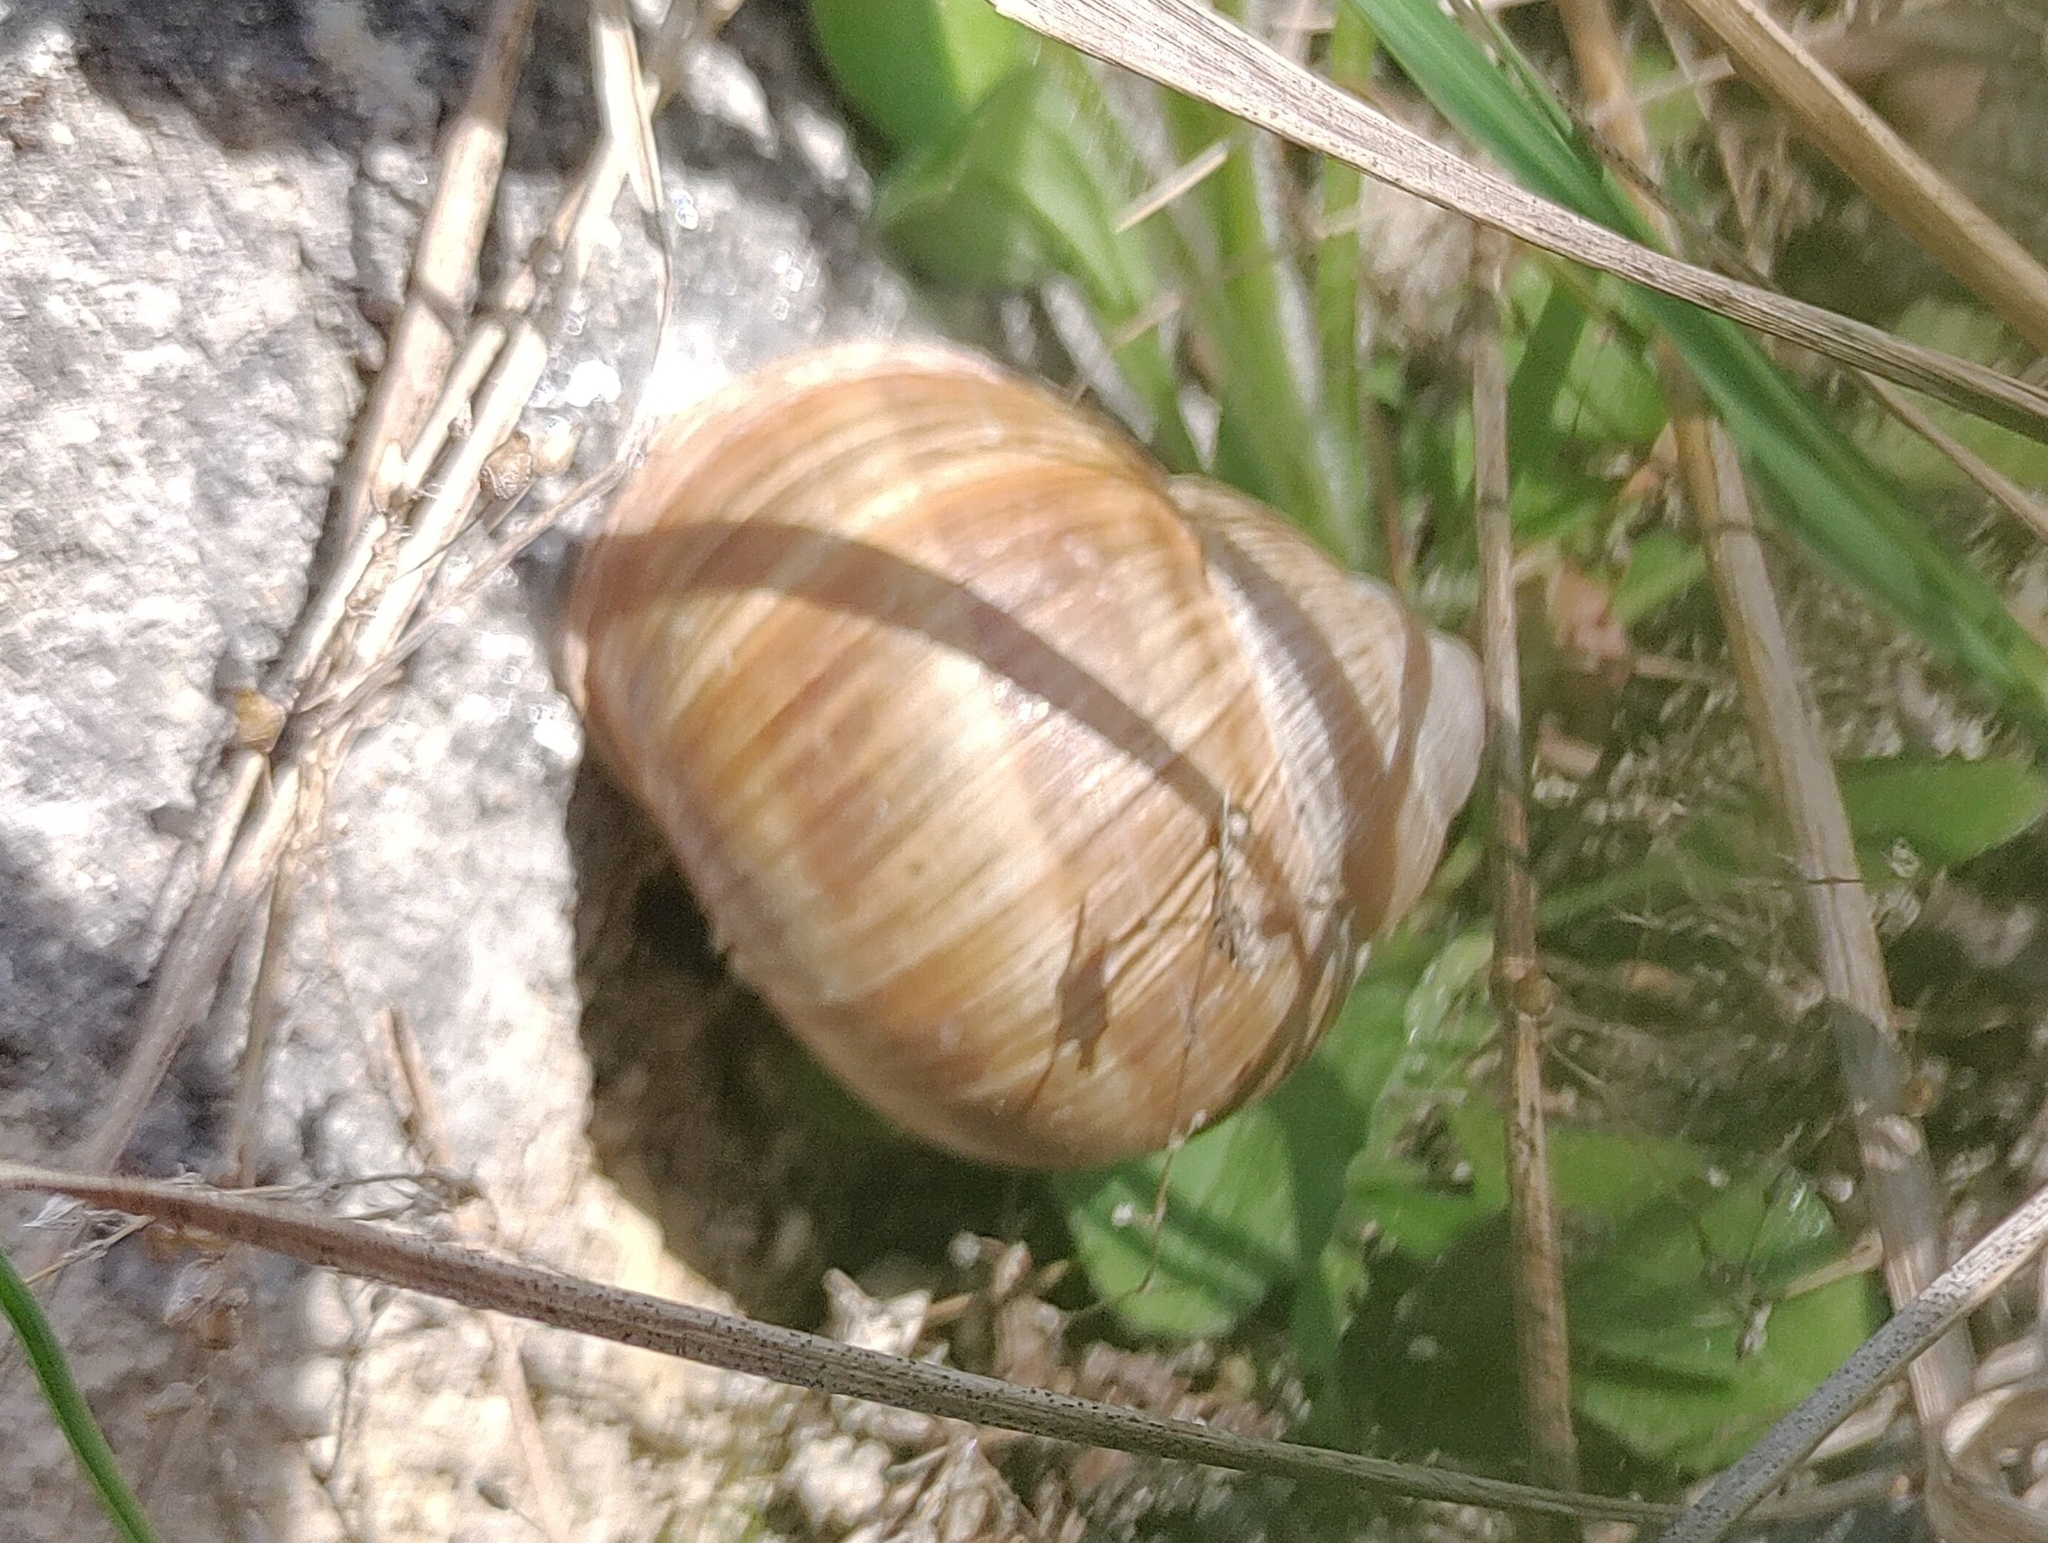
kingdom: Animalia
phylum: Mollusca
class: Gastropoda
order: Stylommatophora
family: Helicidae
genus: Helix
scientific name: Helix pomatia
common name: Roman snail
